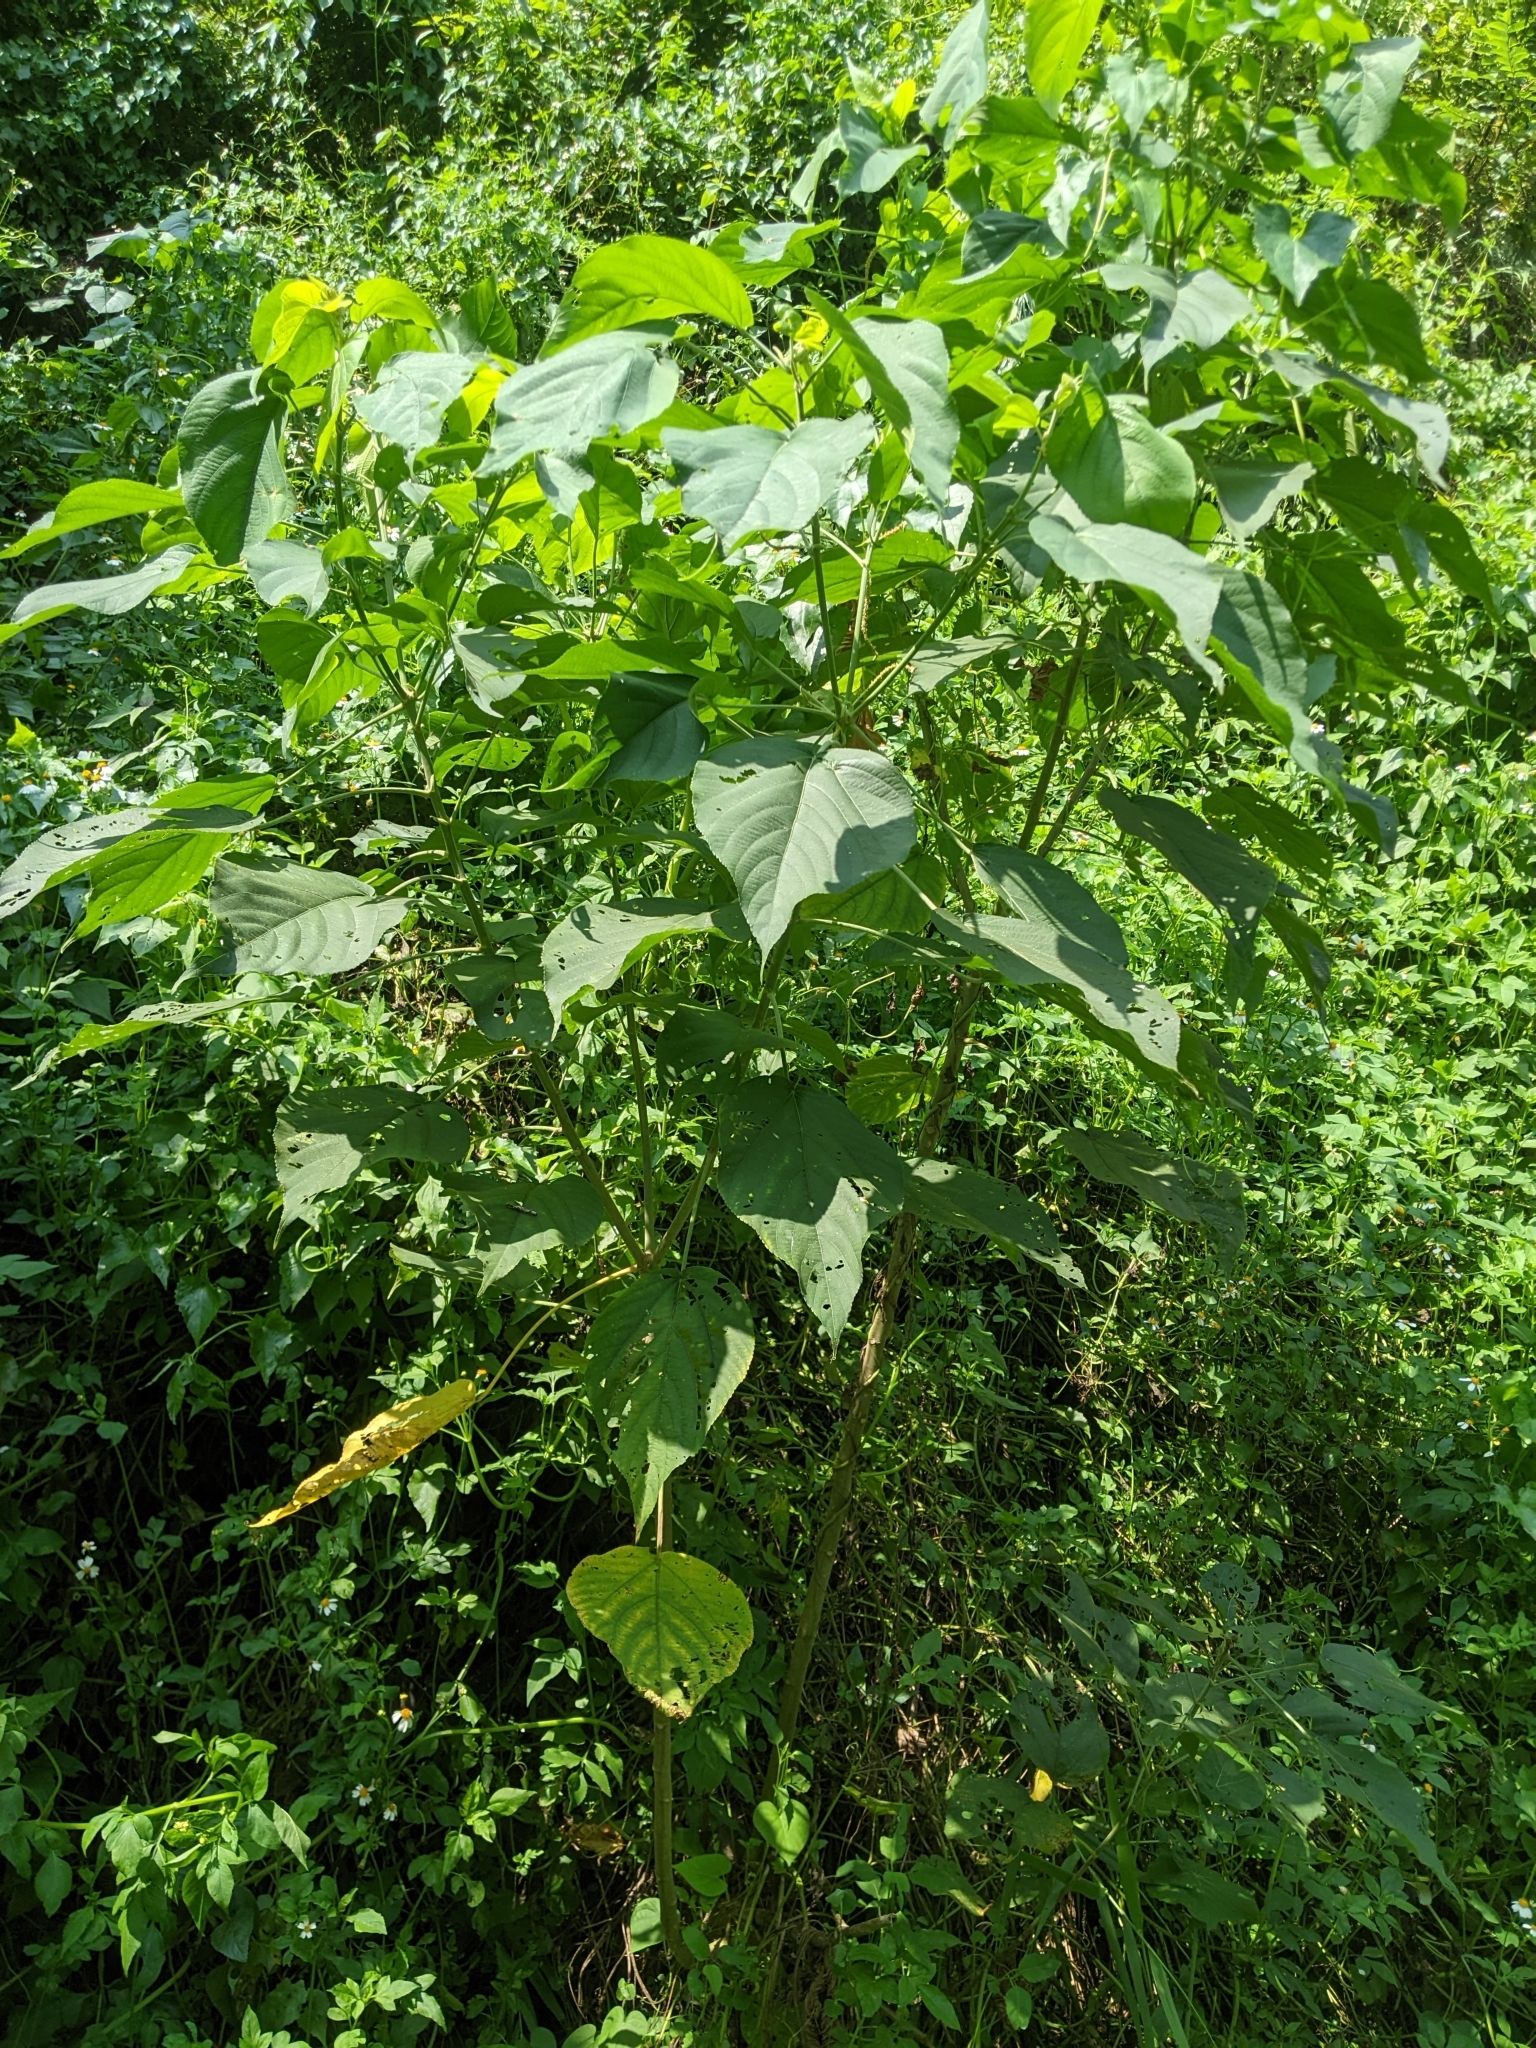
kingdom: Plantae
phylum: Tracheophyta
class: Magnoliopsida
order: Malpighiales
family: Euphorbiaceae
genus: Acalypha
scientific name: Acalypha angatensis
